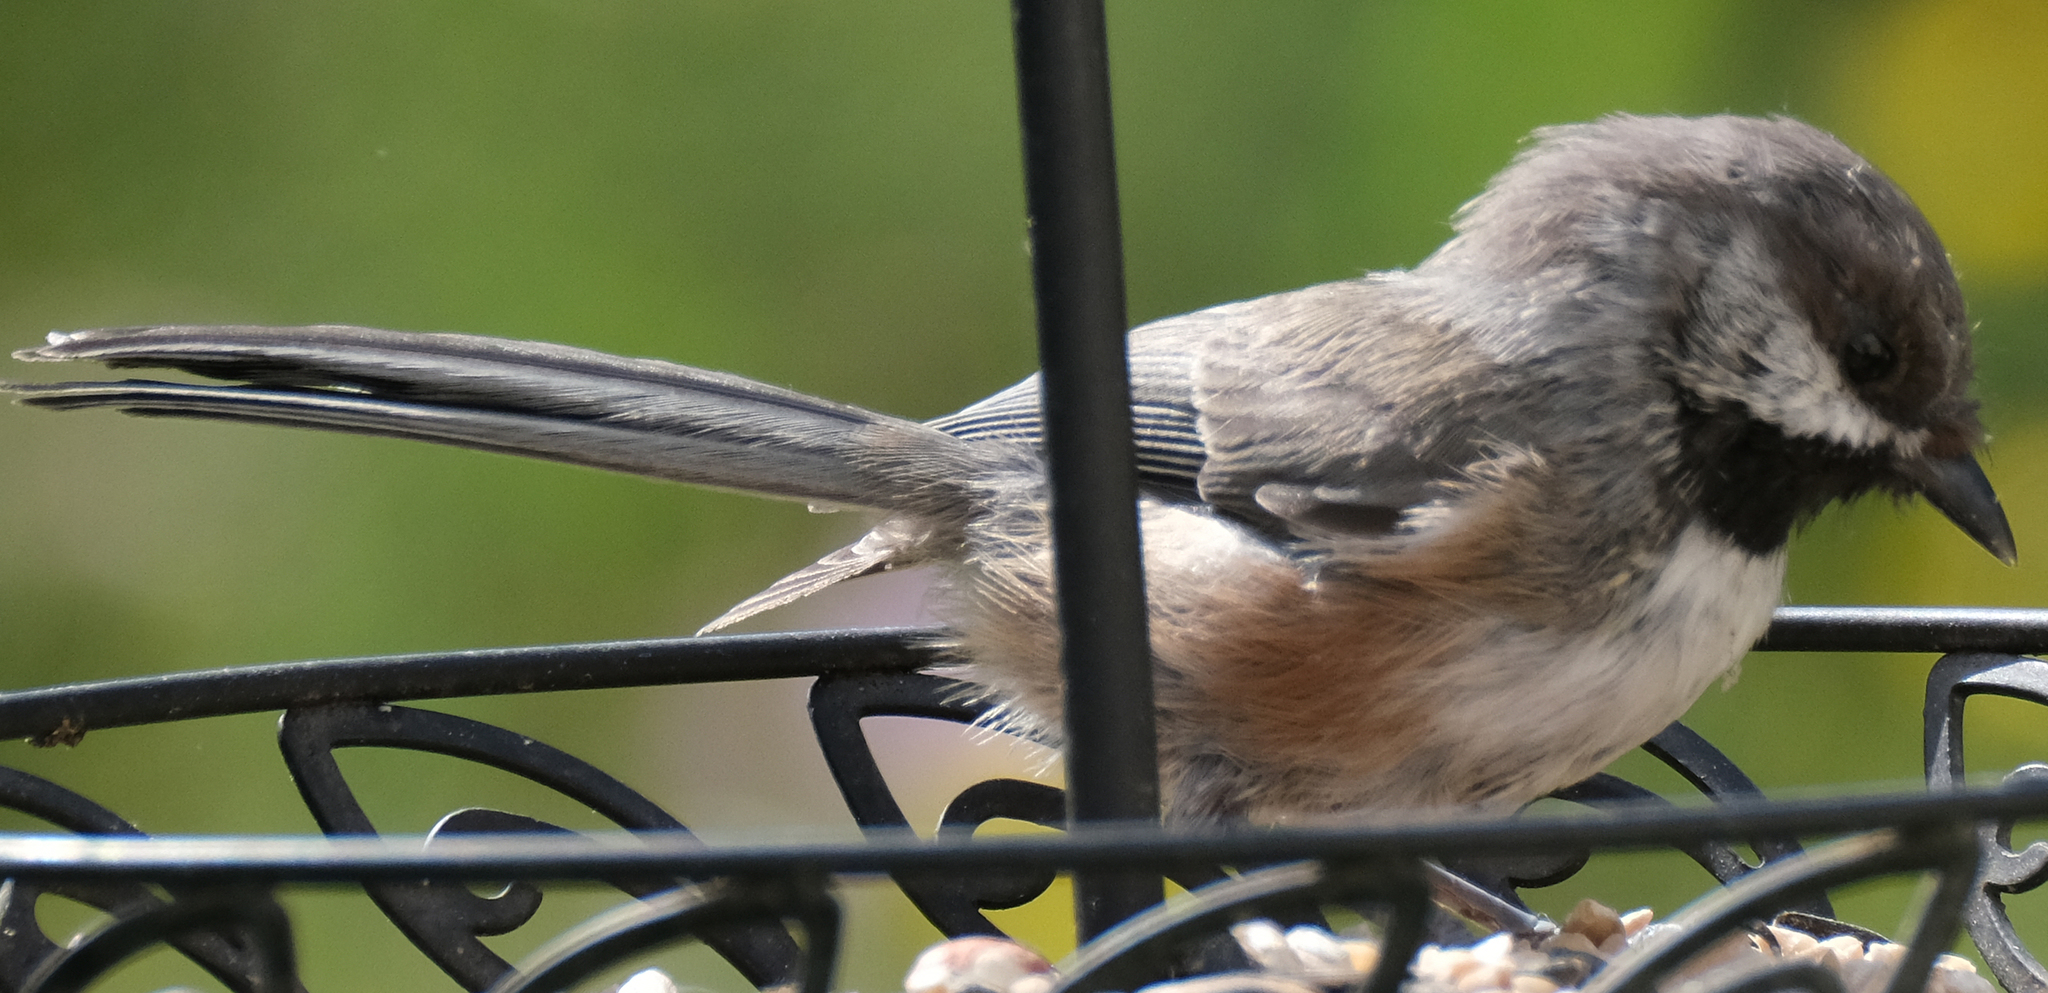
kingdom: Animalia
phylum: Chordata
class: Aves
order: Passeriformes
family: Paridae
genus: Poecile
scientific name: Poecile hudsonicus
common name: Boreal chickadee
